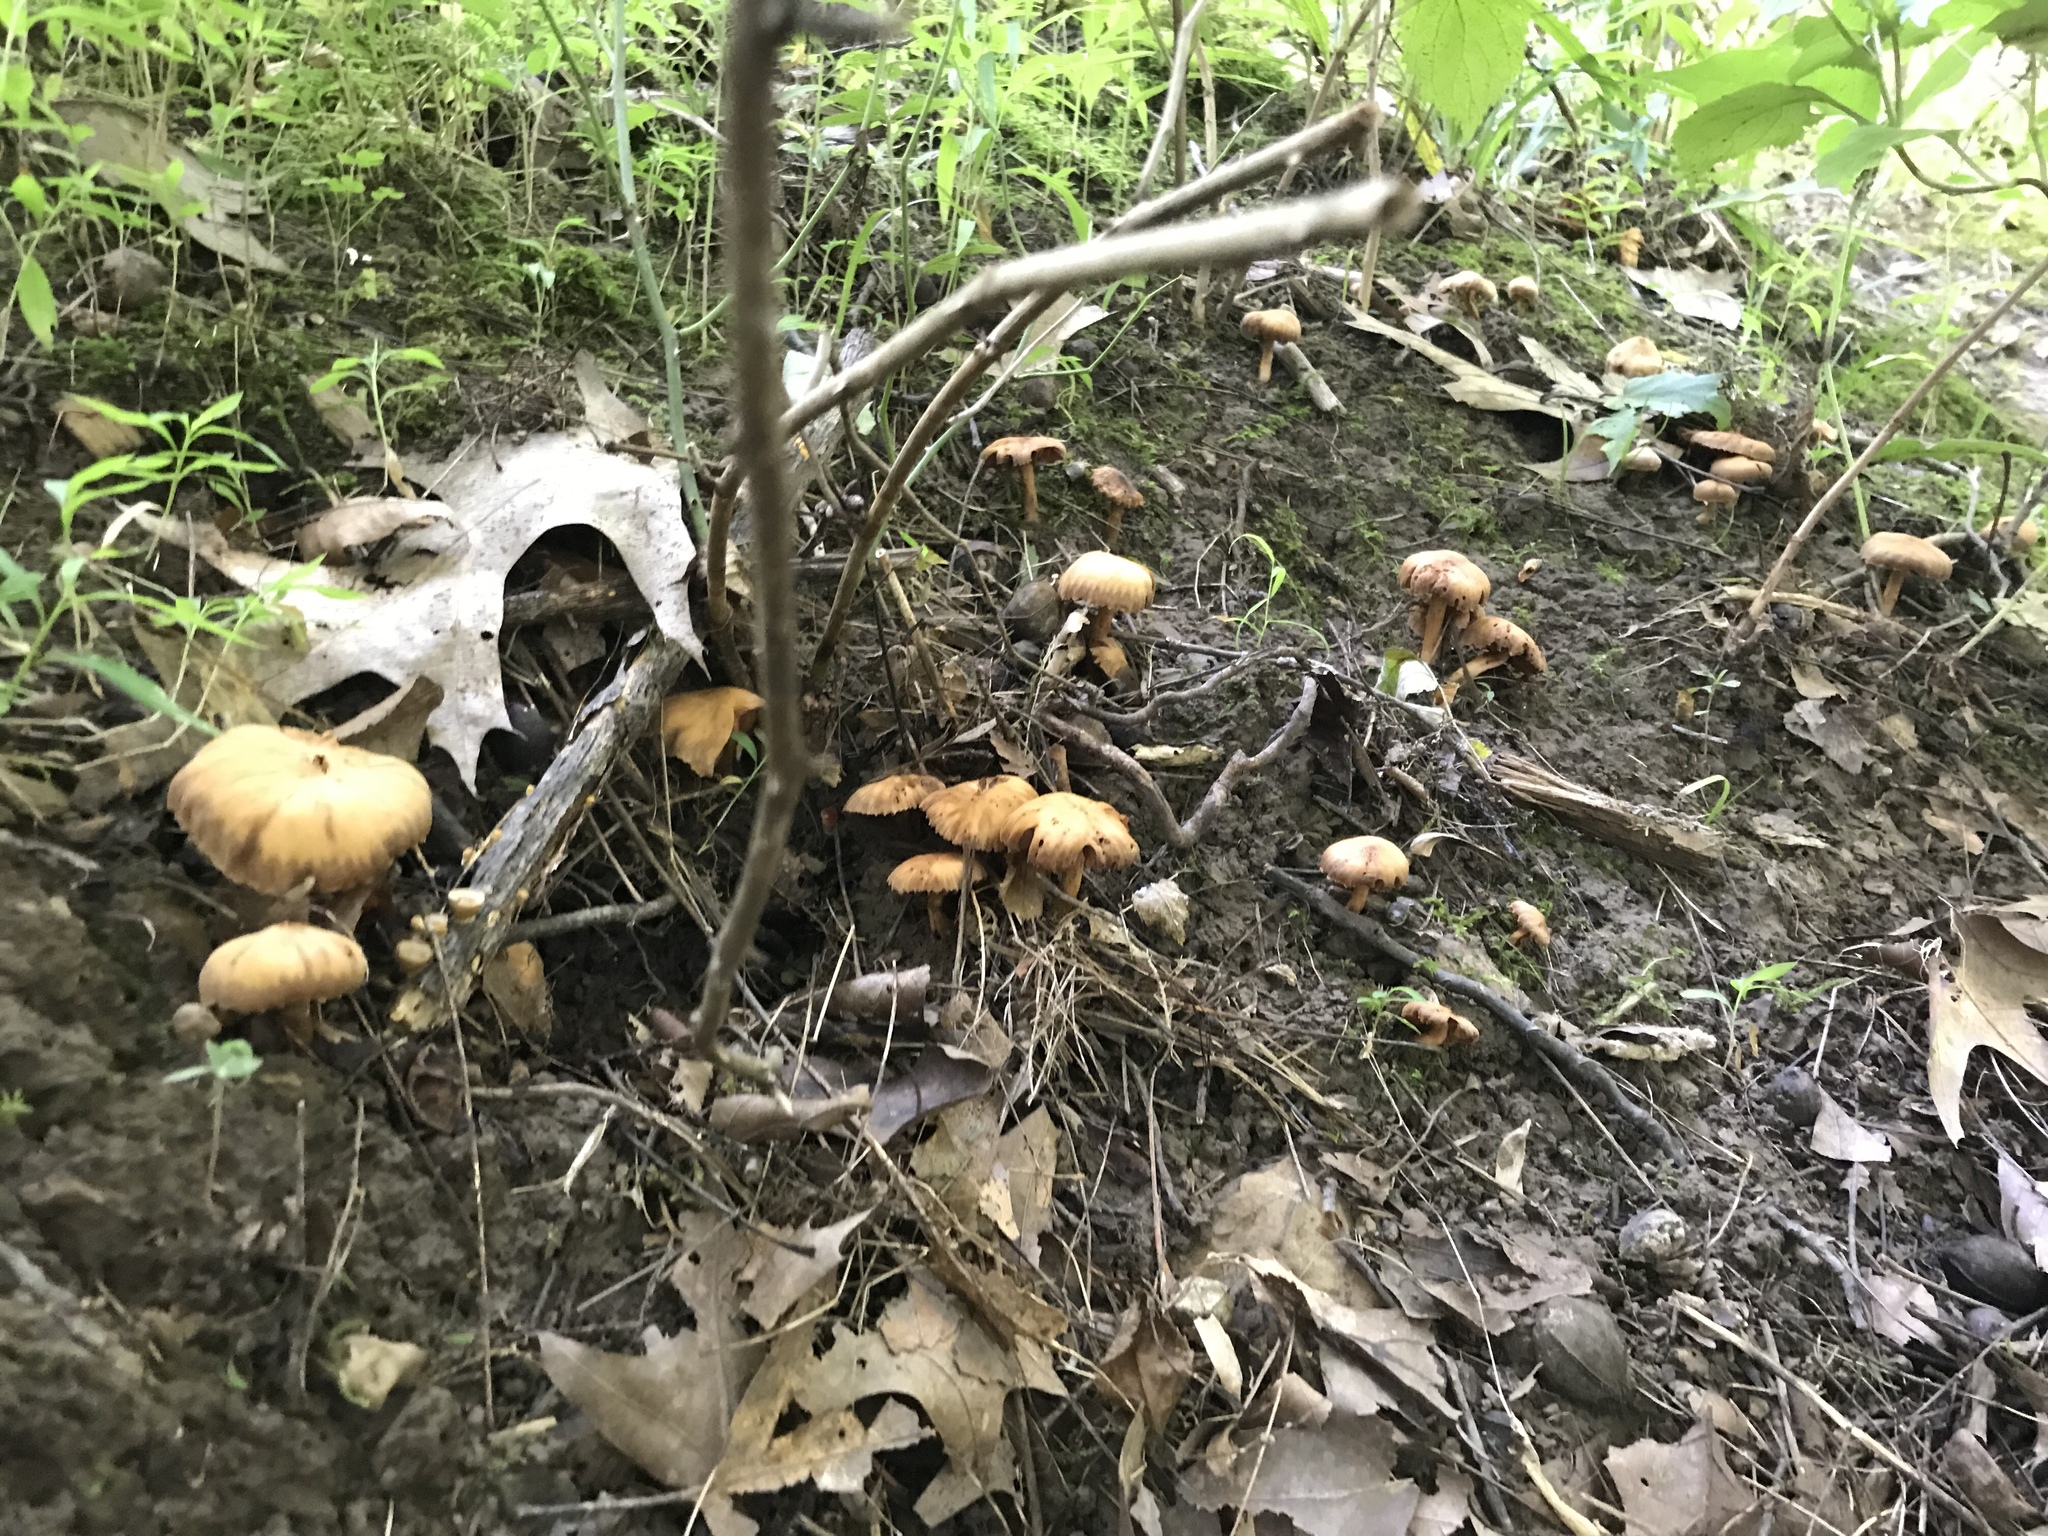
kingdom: Fungi
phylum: Basidiomycota
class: Agaricomycetes
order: Agaricales
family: Cortinariaceae
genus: Cortinarius
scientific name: Cortinarius
